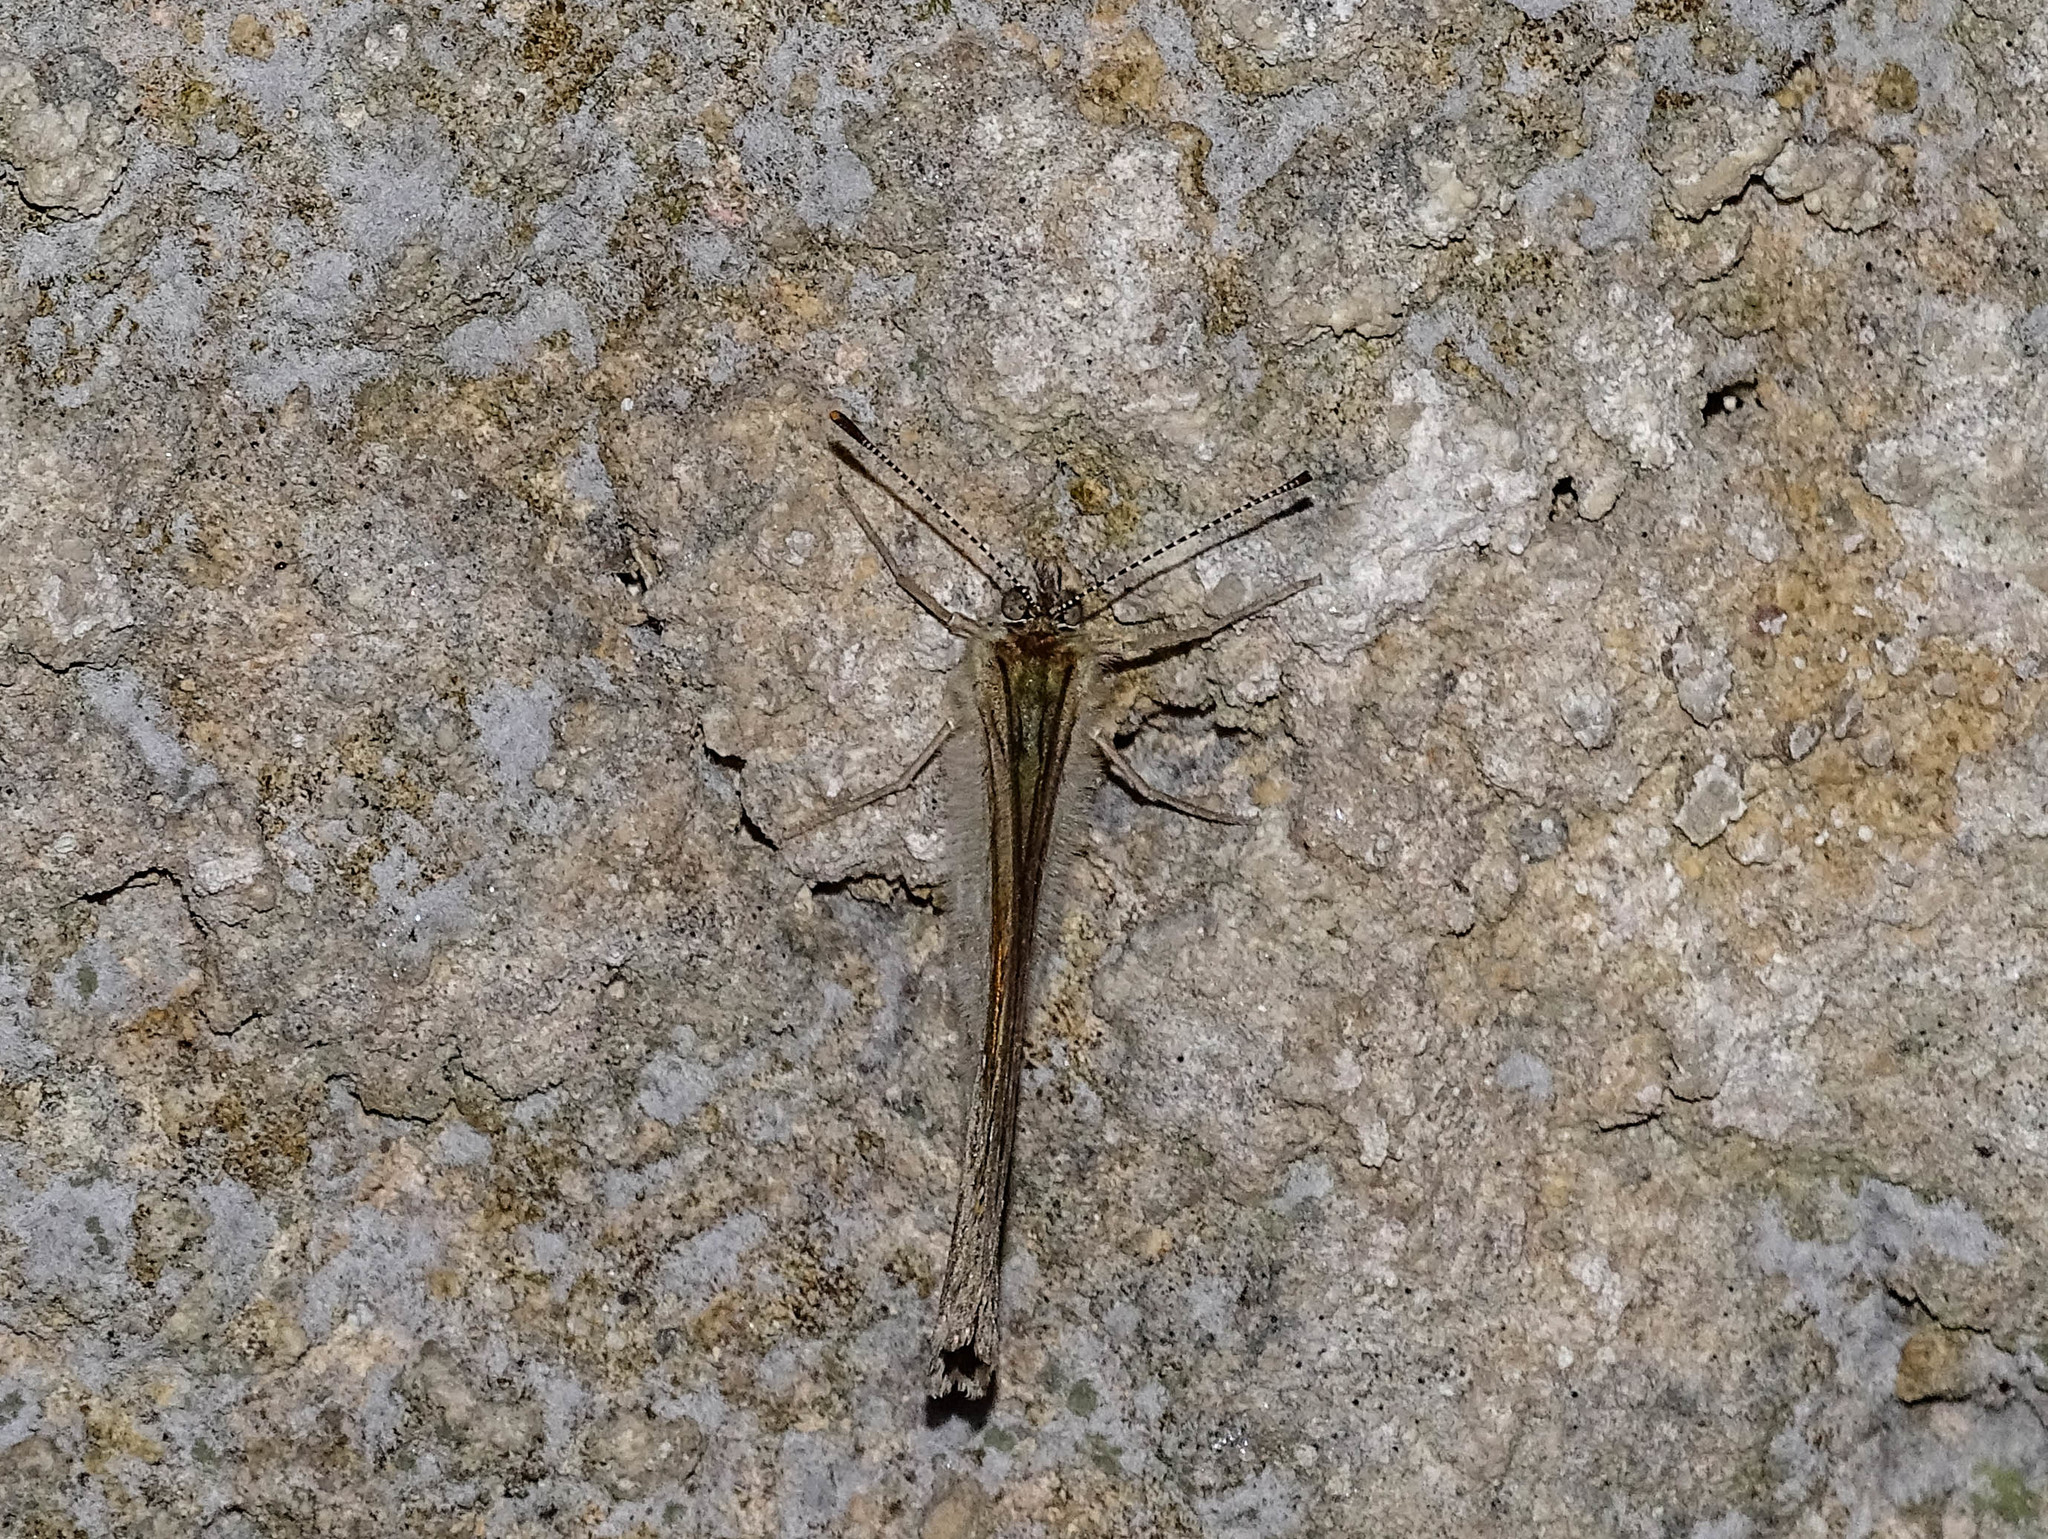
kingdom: Animalia
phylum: Arthropoda
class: Insecta
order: Lepidoptera
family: Nymphalidae
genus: Pararge
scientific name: Pararge Lasiommata maera
